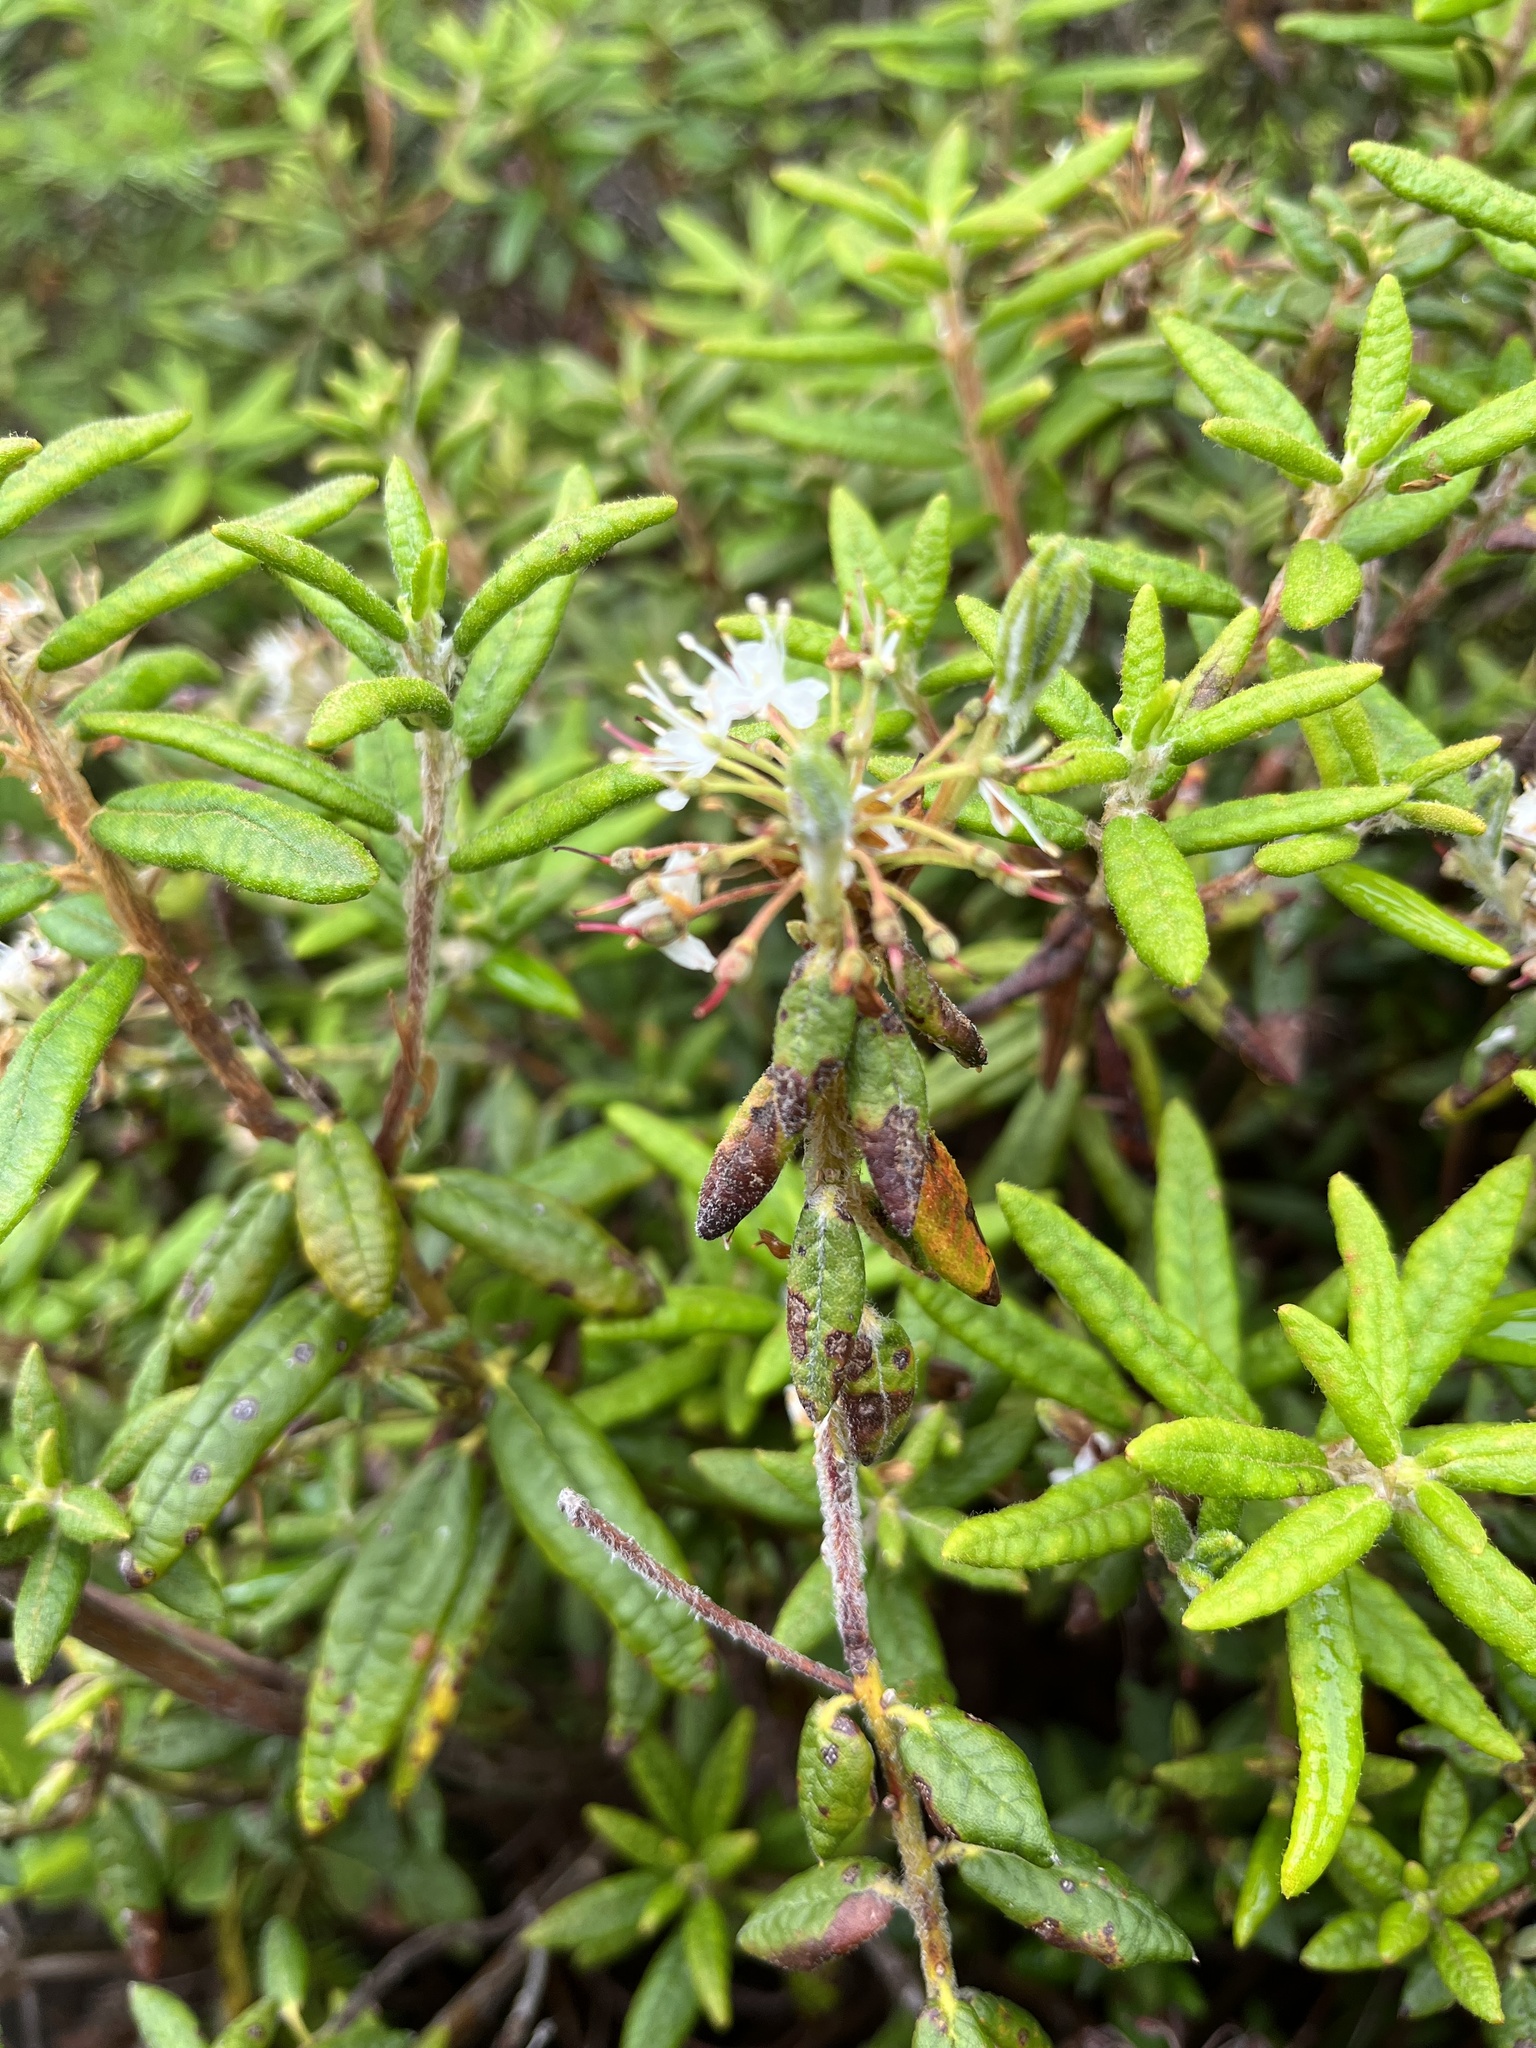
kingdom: Plantae
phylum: Tracheophyta
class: Magnoliopsida
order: Ericales
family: Ericaceae
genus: Rhododendron
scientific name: Rhododendron groenlandicum
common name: Bog labrador tea
